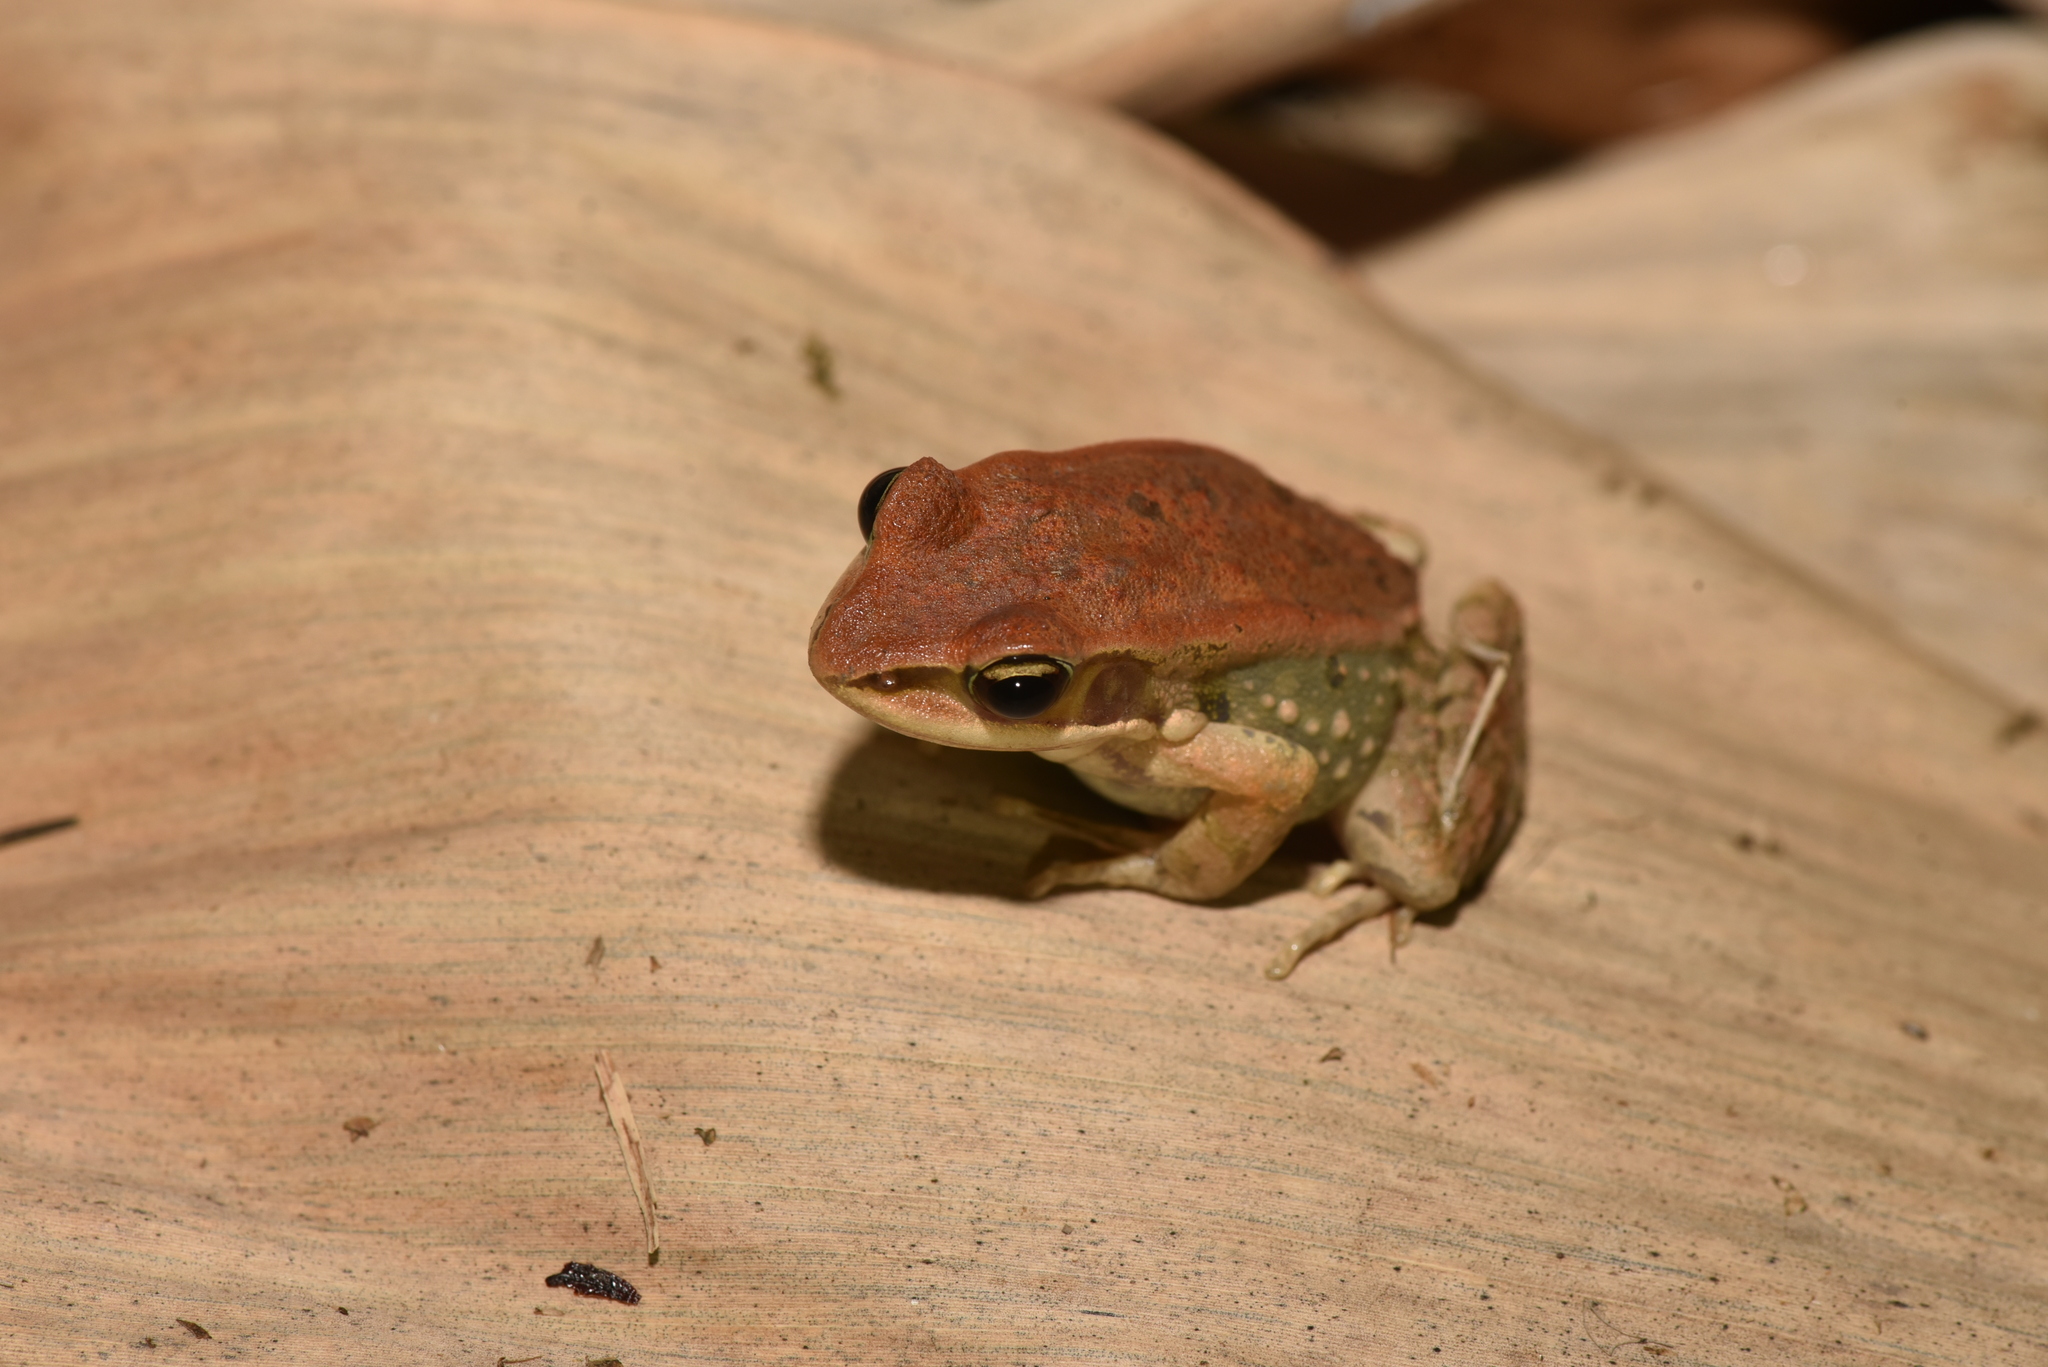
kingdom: Animalia
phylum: Chordata
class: Amphibia
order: Anura
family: Ranidae
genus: Hylarana
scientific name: Hylarana latouchii
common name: Broad-folded frog
